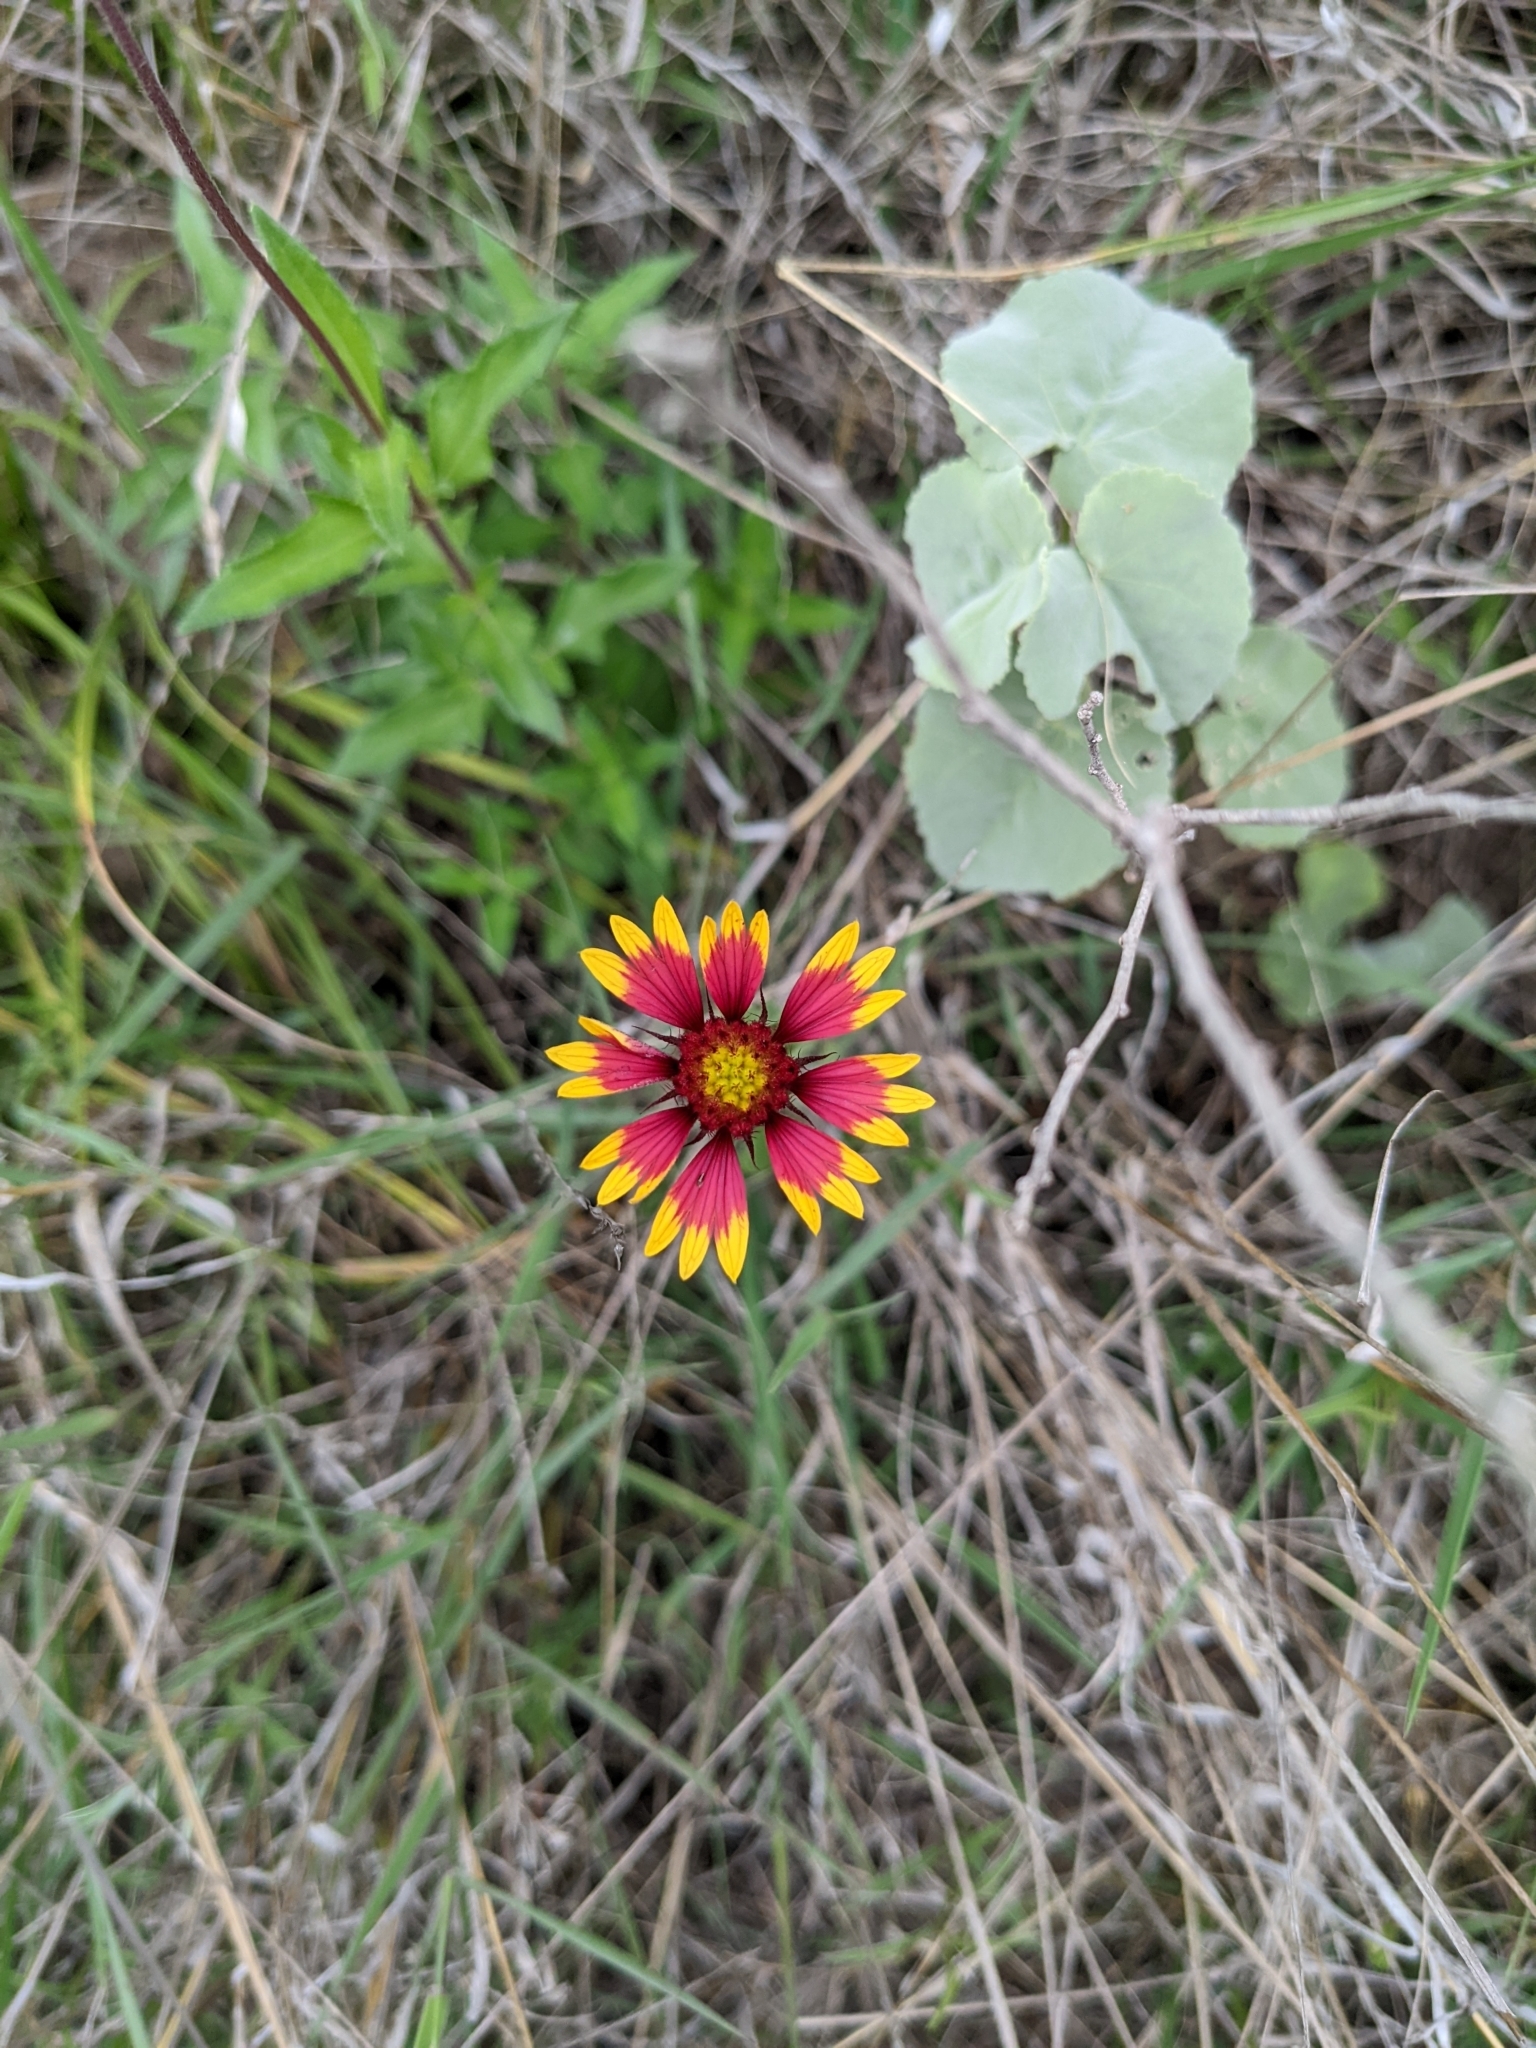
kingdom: Plantae
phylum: Tracheophyta
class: Magnoliopsida
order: Asterales
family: Asteraceae
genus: Gaillardia
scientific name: Gaillardia pulchella
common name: Firewheel
